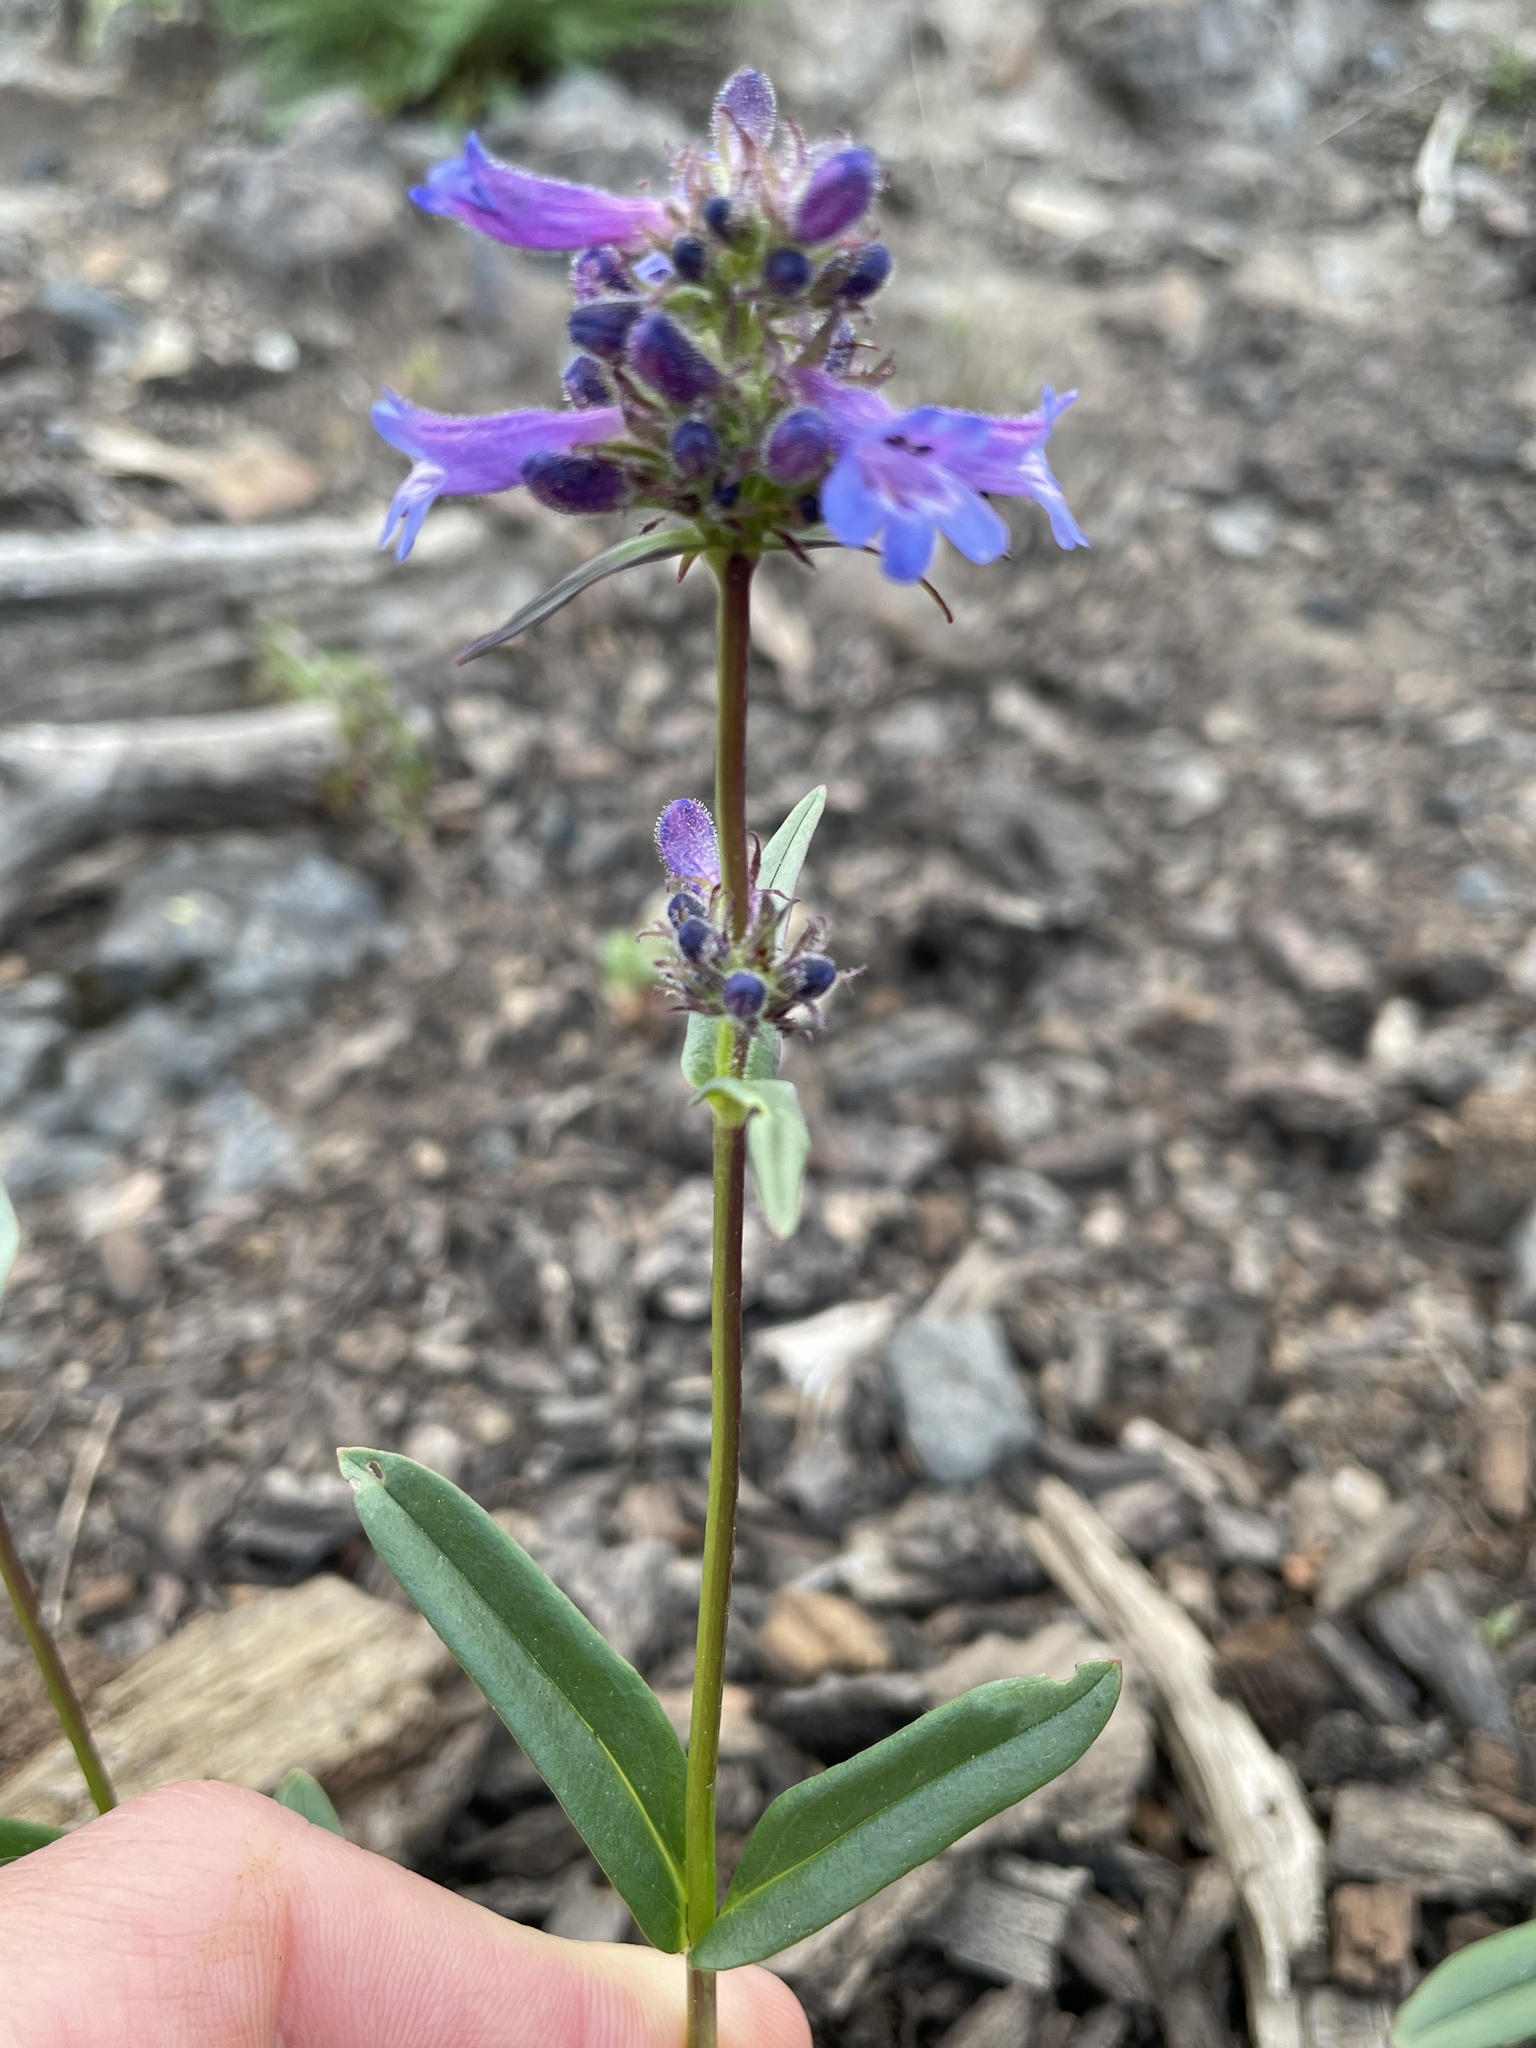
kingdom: Plantae
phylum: Tracheophyta
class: Magnoliopsida
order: Lamiales
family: Plantaginaceae
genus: Penstemon
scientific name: Penstemon attenuatus
